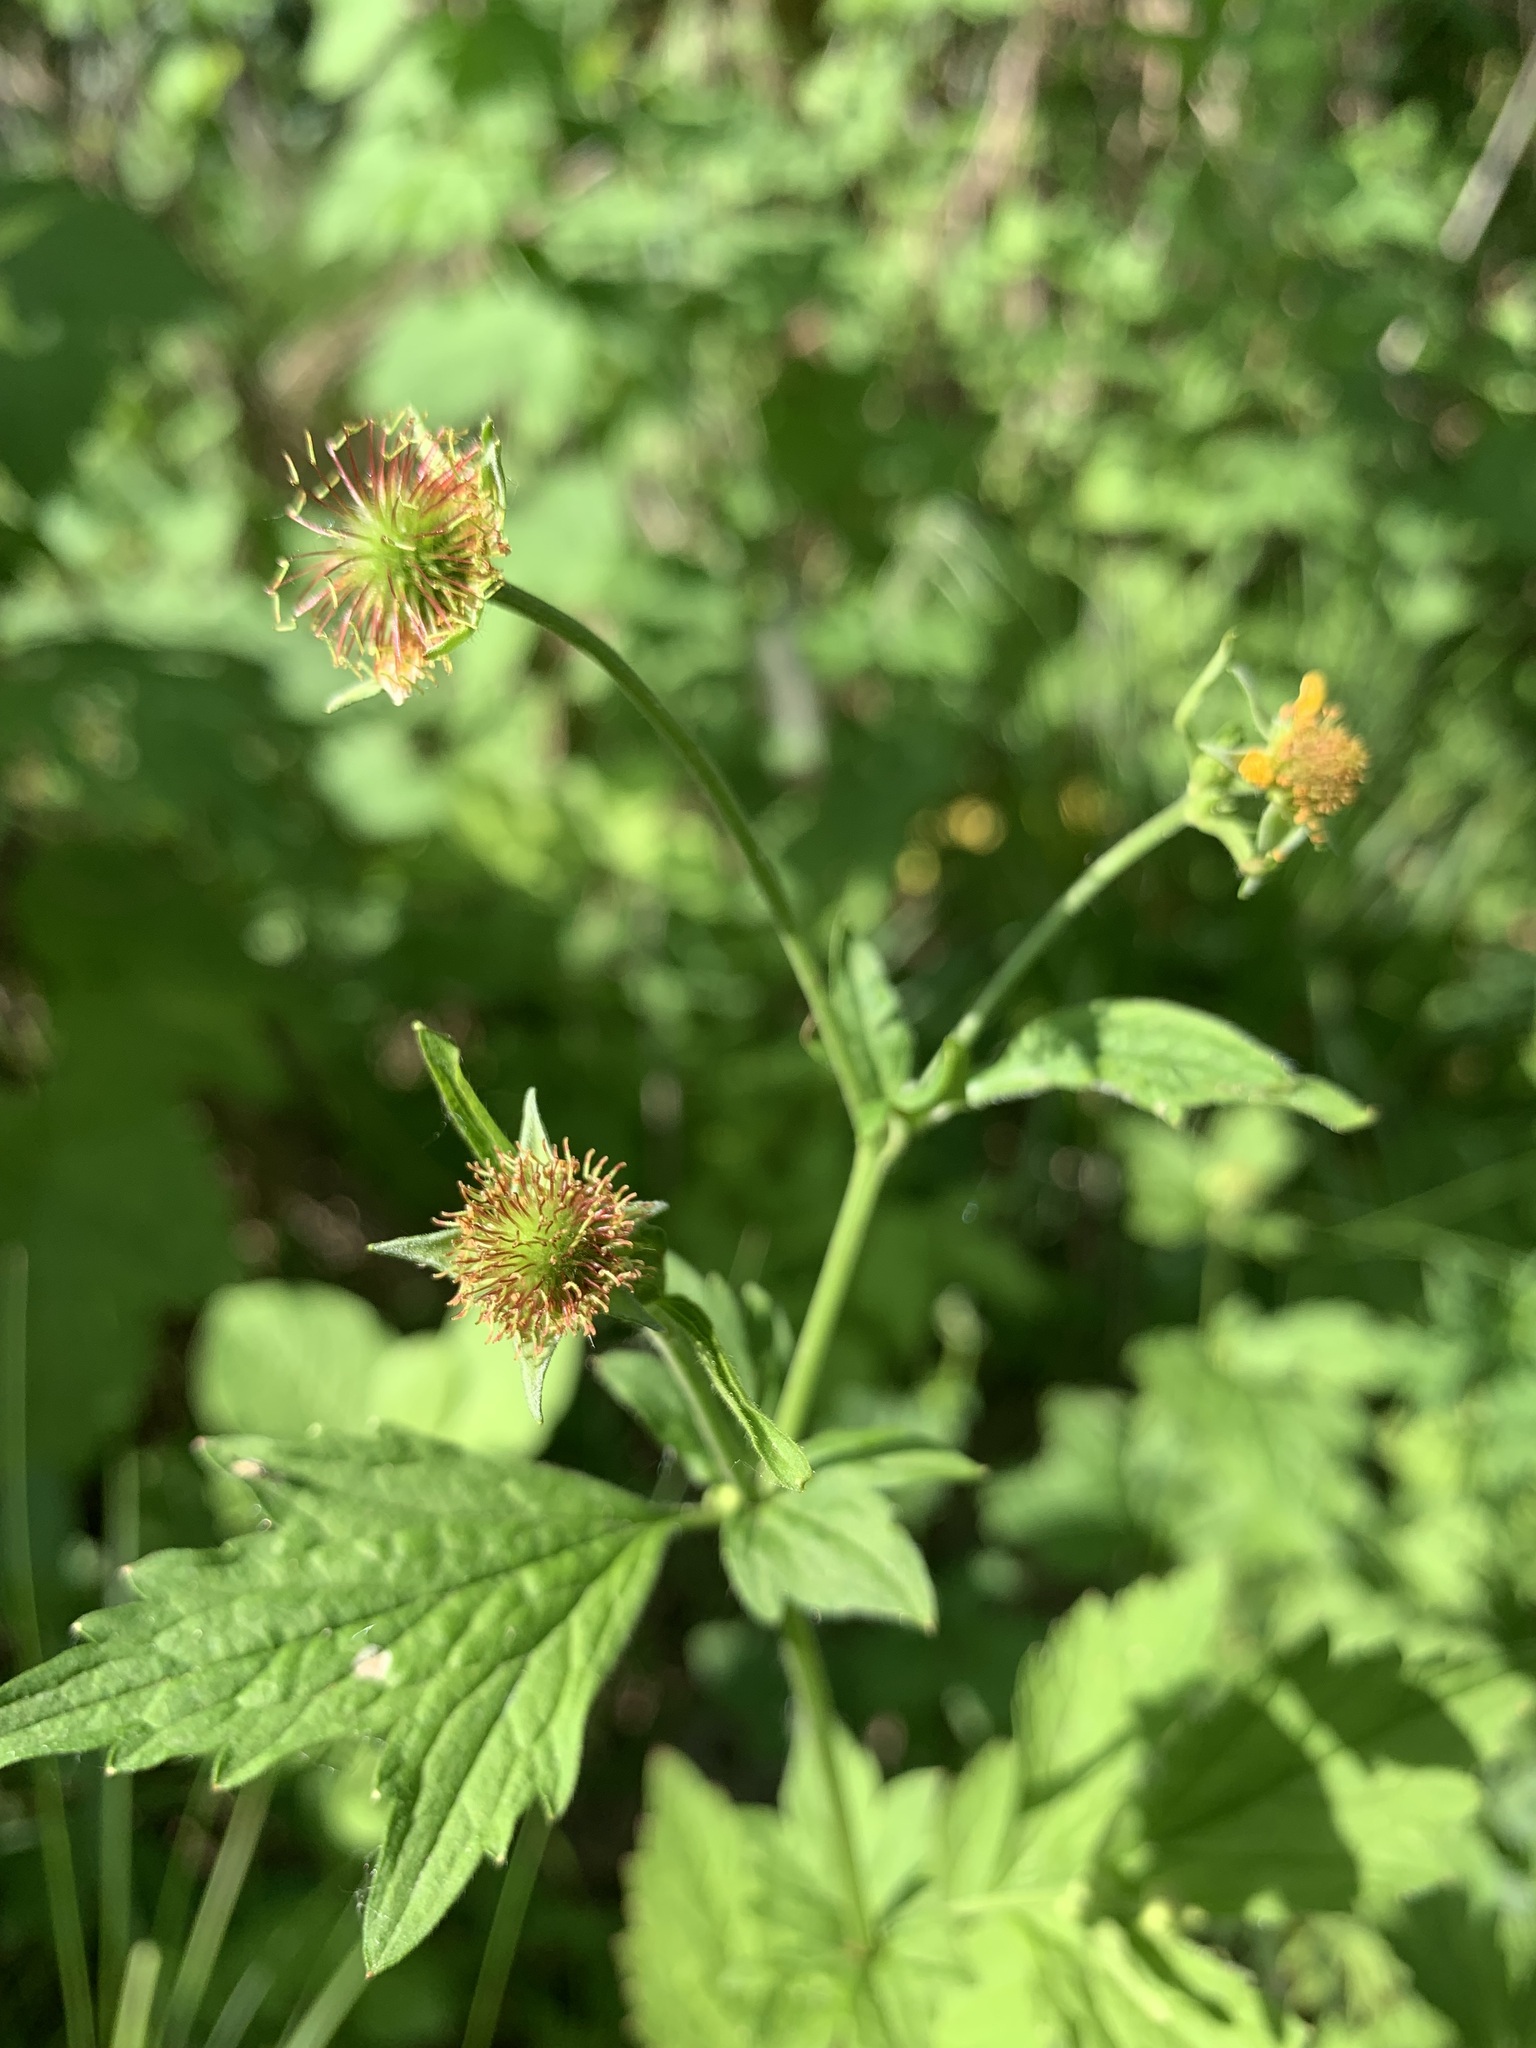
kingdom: Plantae
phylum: Tracheophyta
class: Magnoliopsida
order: Rosales
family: Rosaceae
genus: Geum
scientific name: Geum urbanum
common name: Wood avens
